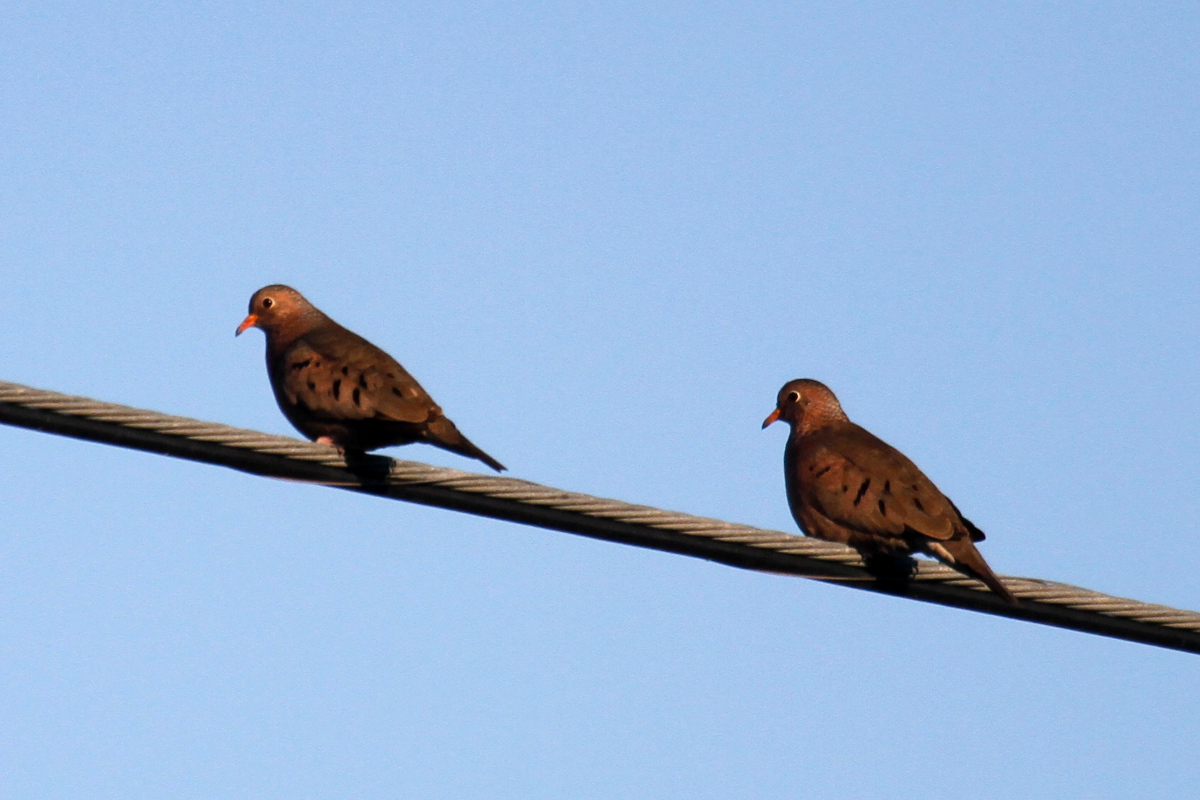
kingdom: Animalia
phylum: Chordata
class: Aves
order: Columbiformes
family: Columbidae
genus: Columbina
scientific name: Columbina passerina
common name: Common ground-dove
